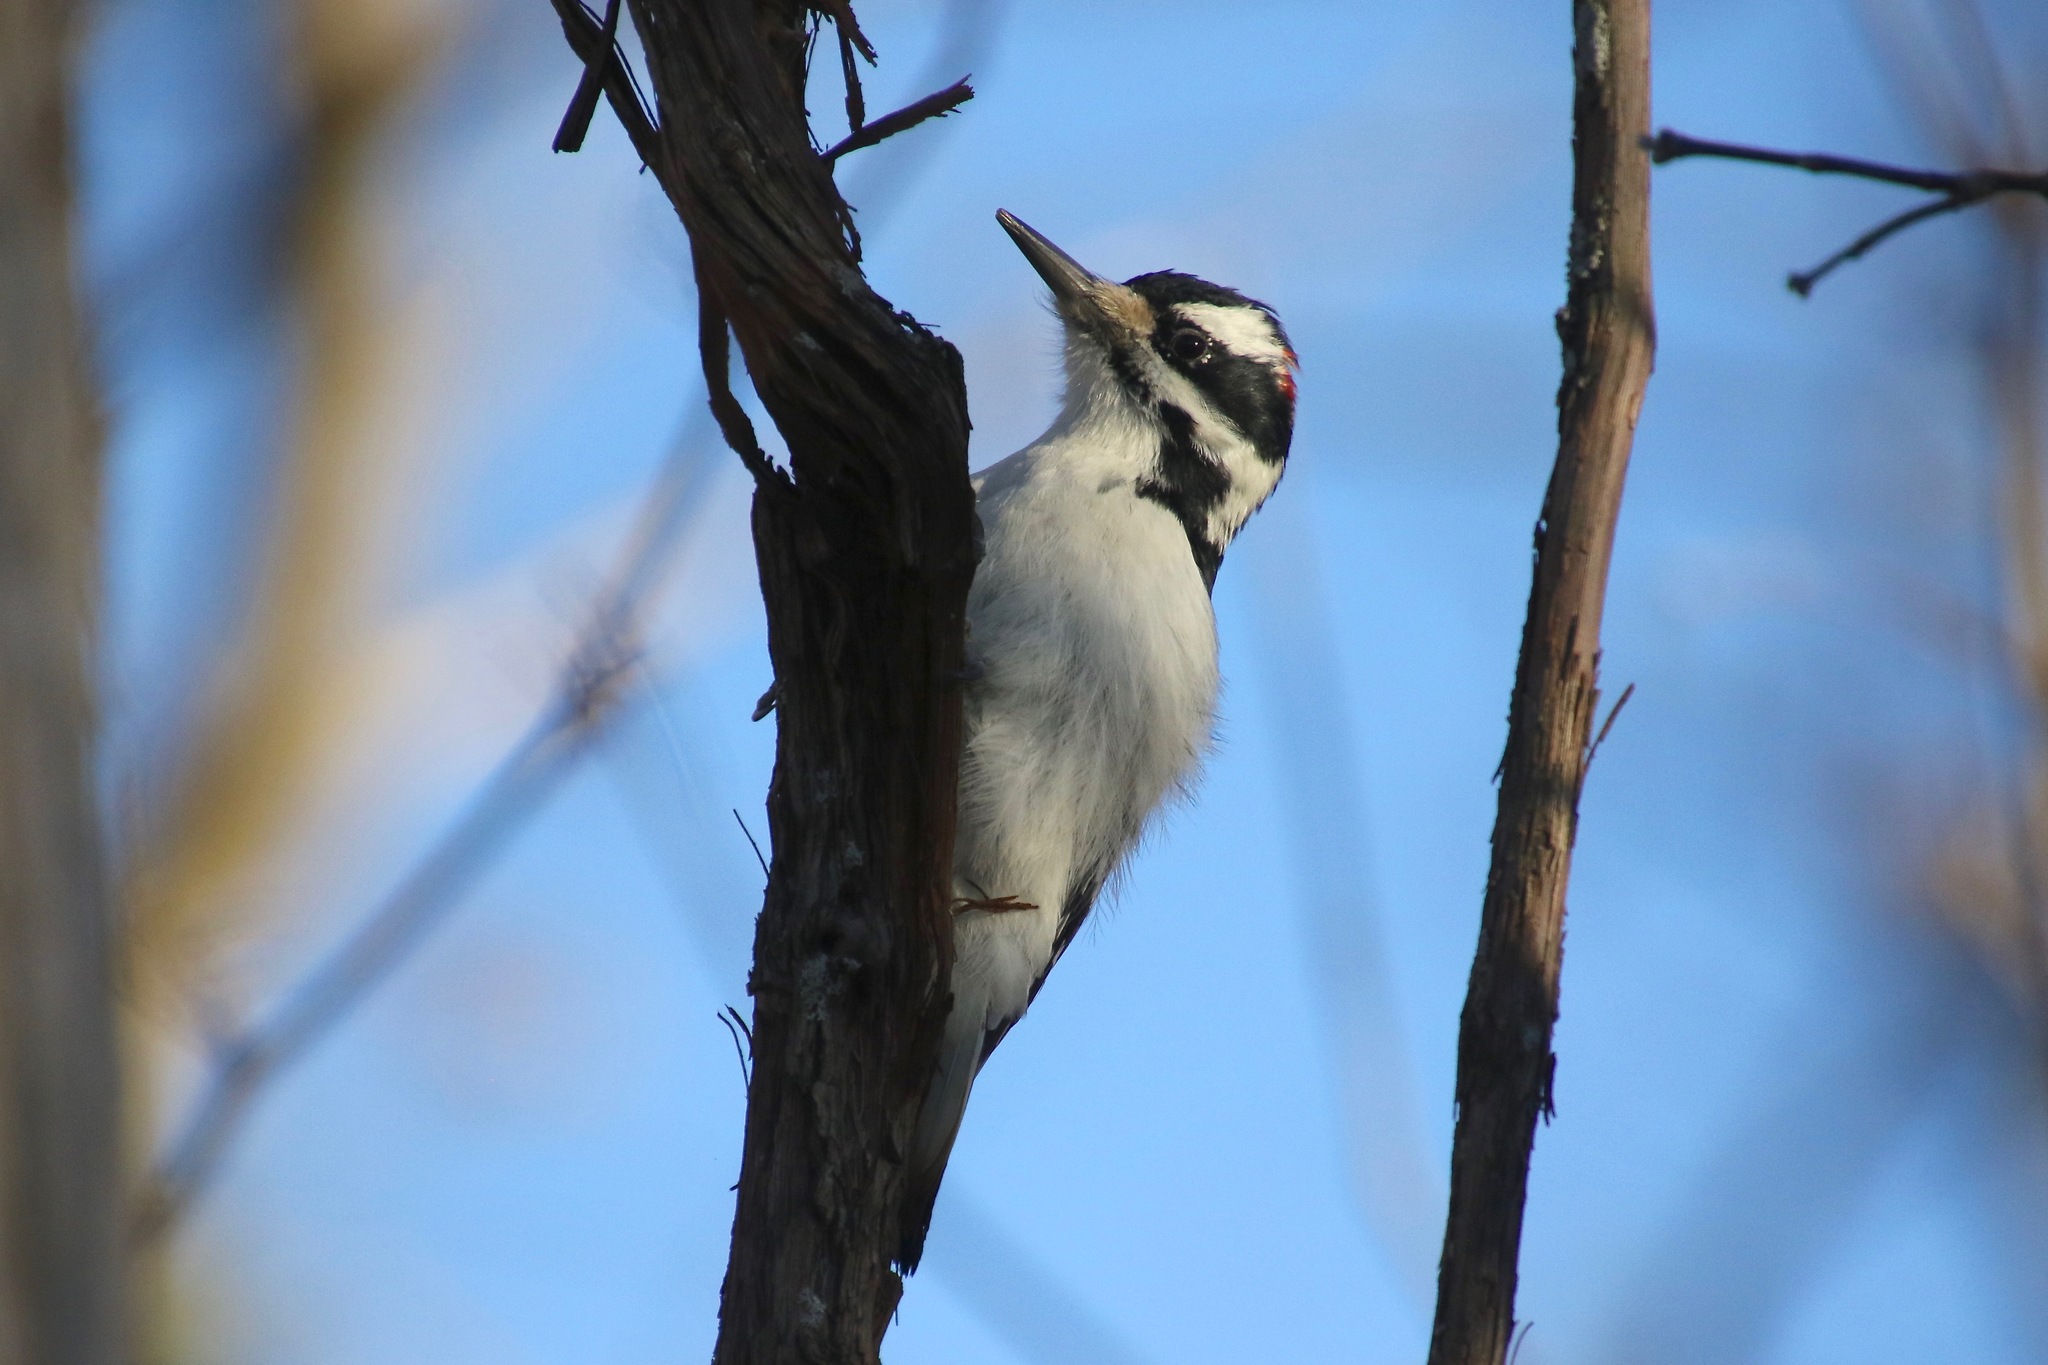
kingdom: Animalia
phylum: Chordata
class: Aves
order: Piciformes
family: Picidae
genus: Leuconotopicus
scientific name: Leuconotopicus villosus
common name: Hairy woodpecker
